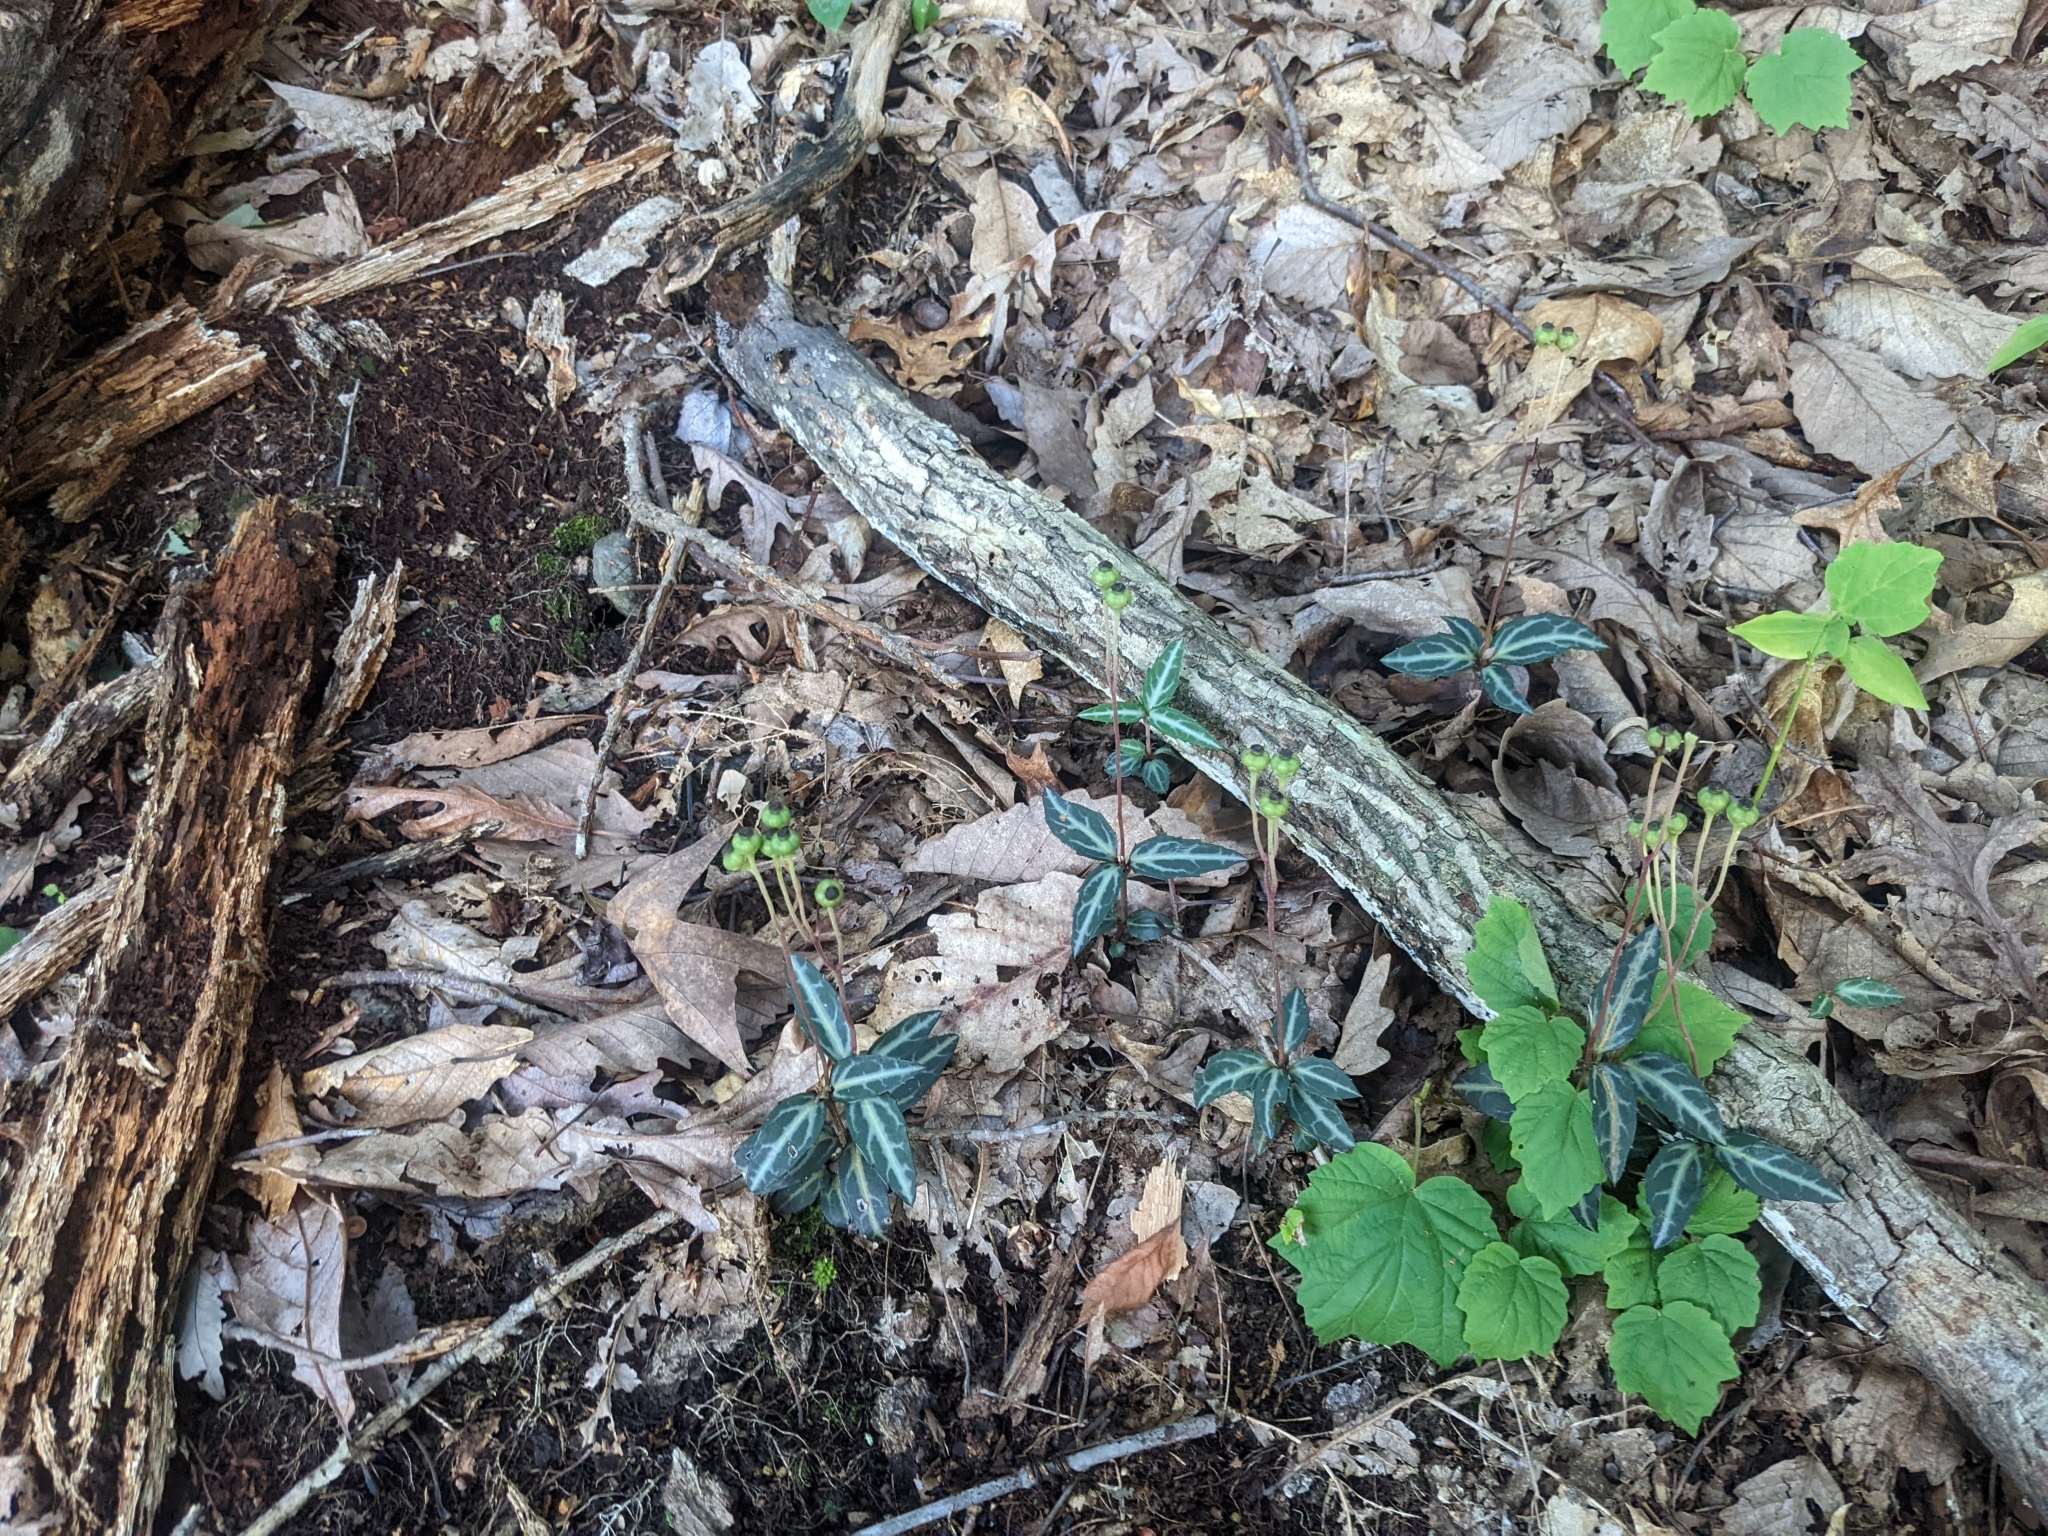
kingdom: Plantae
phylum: Tracheophyta
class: Magnoliopsida
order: Ericales
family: Ericaceae
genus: Chimaphila
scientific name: Chimaphila maculata
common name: Spotted pipsissewa
